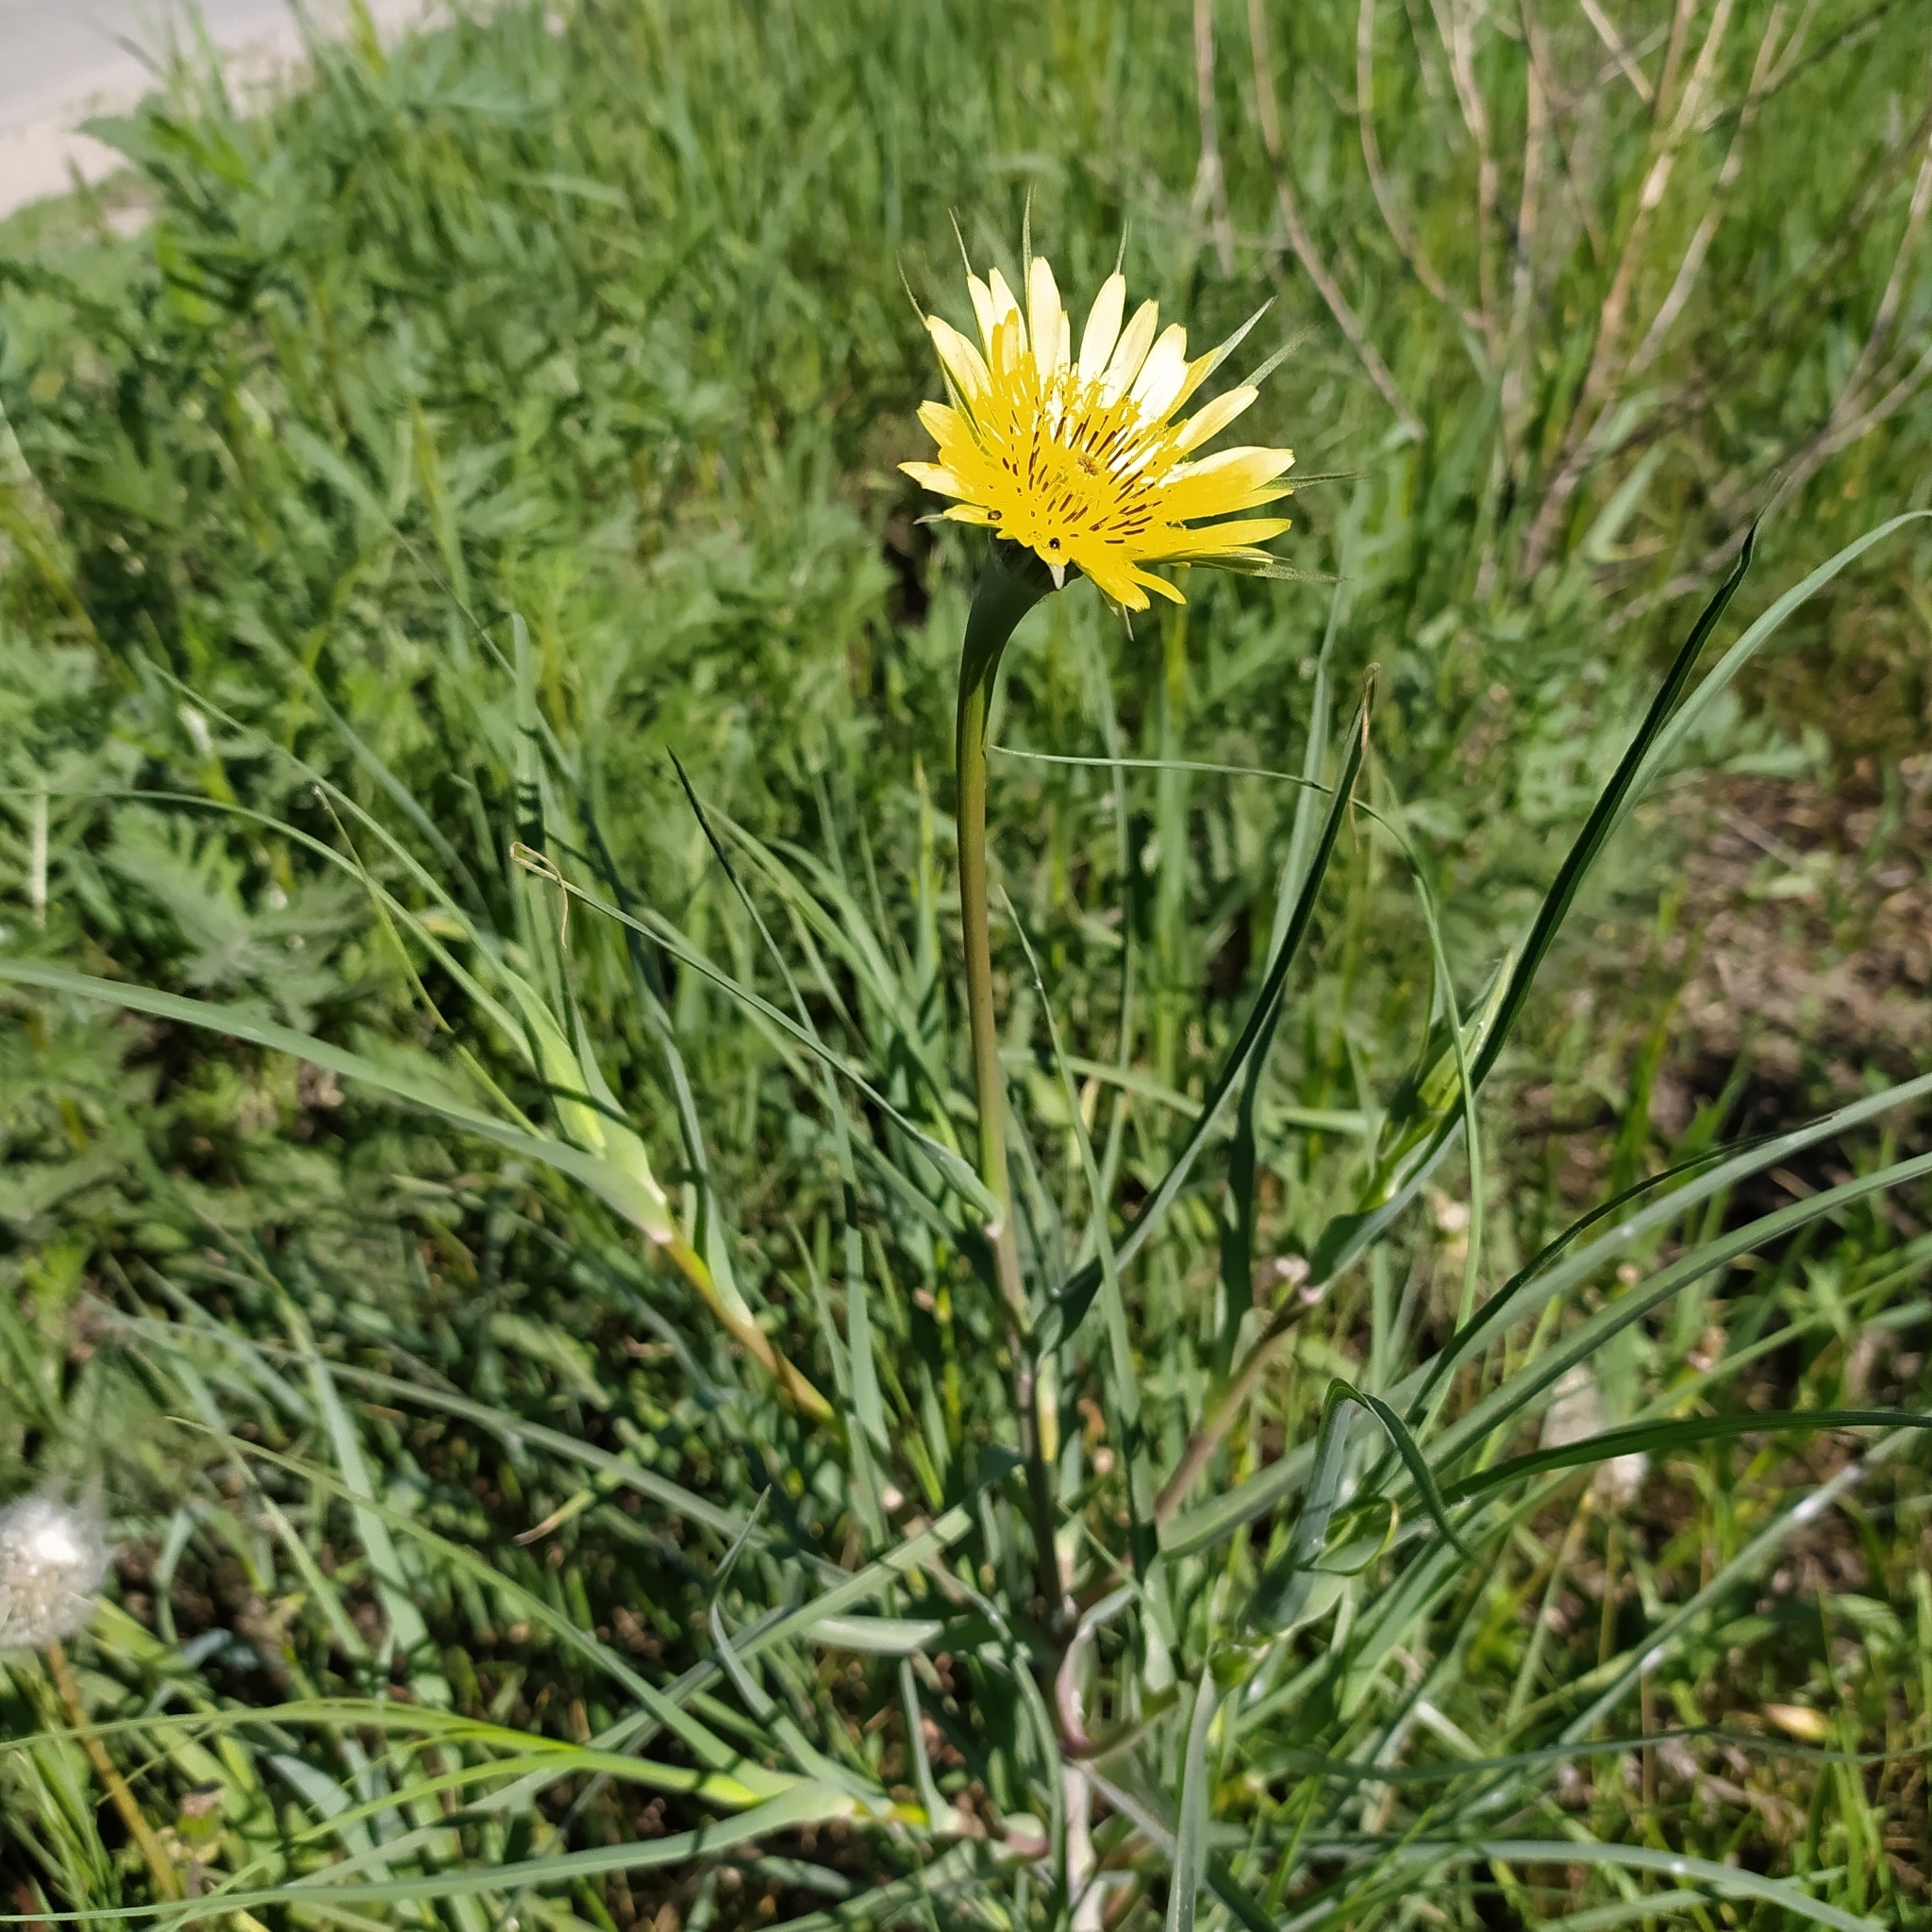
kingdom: Plantae
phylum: Tracheophyta
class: Magnoliopsida
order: Asterales
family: Asteraceae
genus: Tragopogon
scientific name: Tragopogon dubius
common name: Yellow salsify
